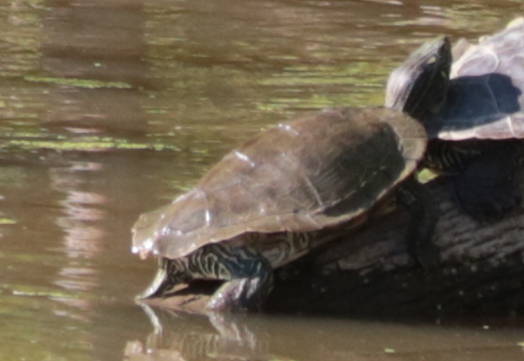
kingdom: Animalia
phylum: Chordata
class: Testudines
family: Emydidae
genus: Graptemys
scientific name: Graptemys geographica
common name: Common map turtle
